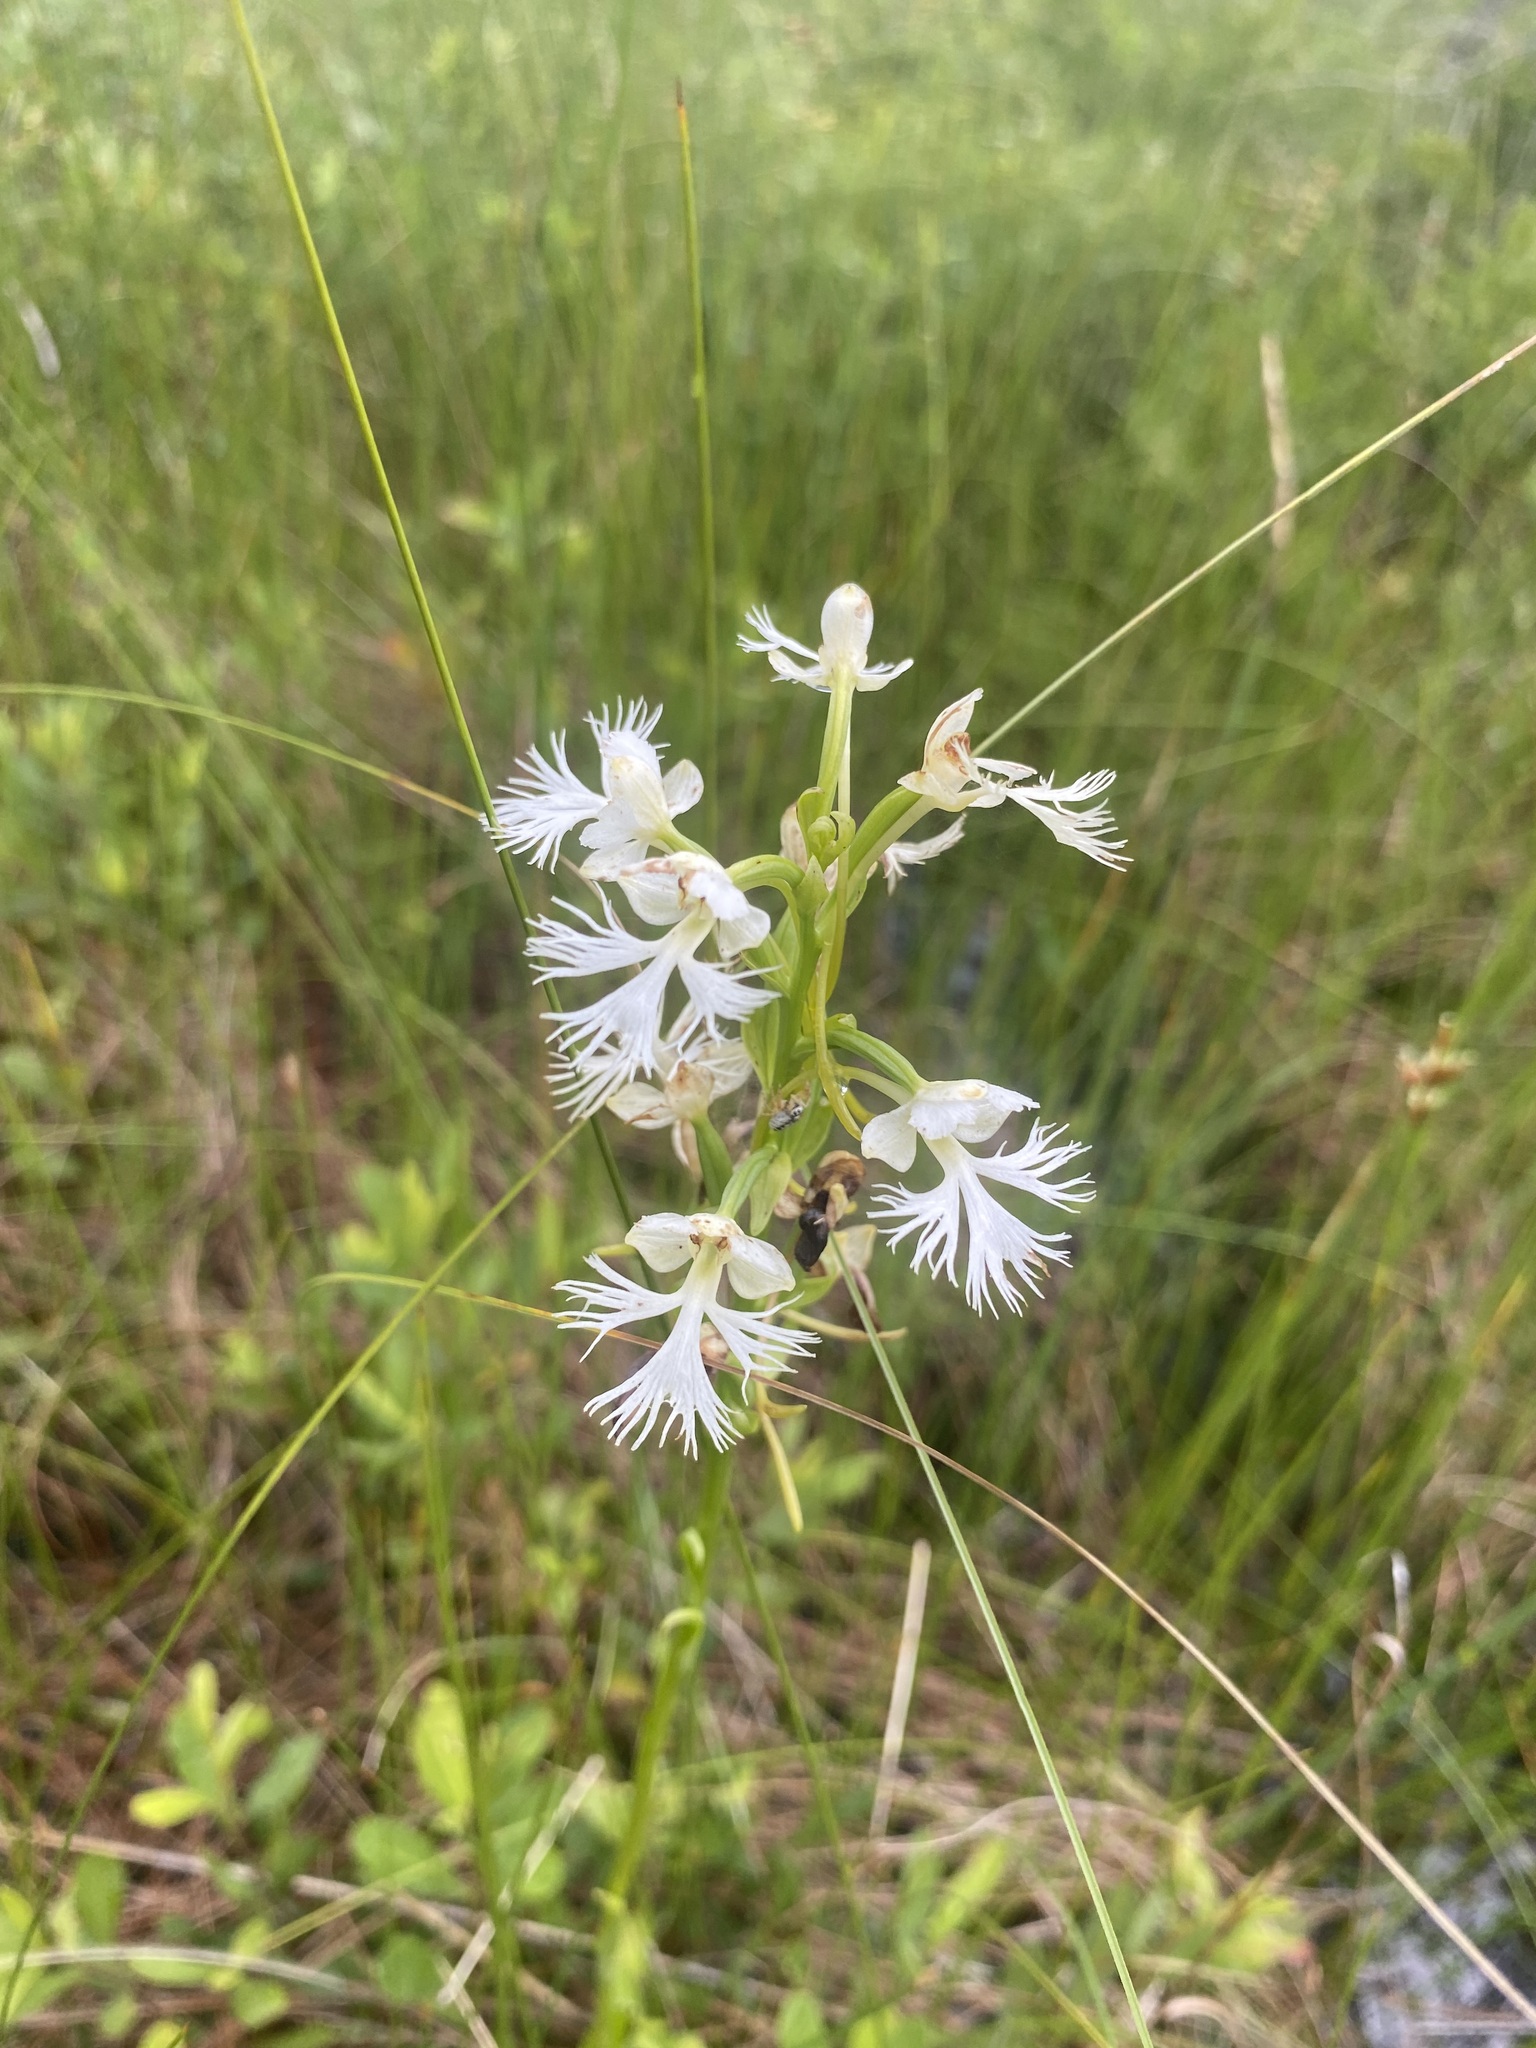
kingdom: Plantae
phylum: Tracheophyta
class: Liliopsida
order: Asparagales
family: Orchidaceae
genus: Platanthera
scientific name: Platanthera leucophaea
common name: Eastern prairie white-fringed orchid
